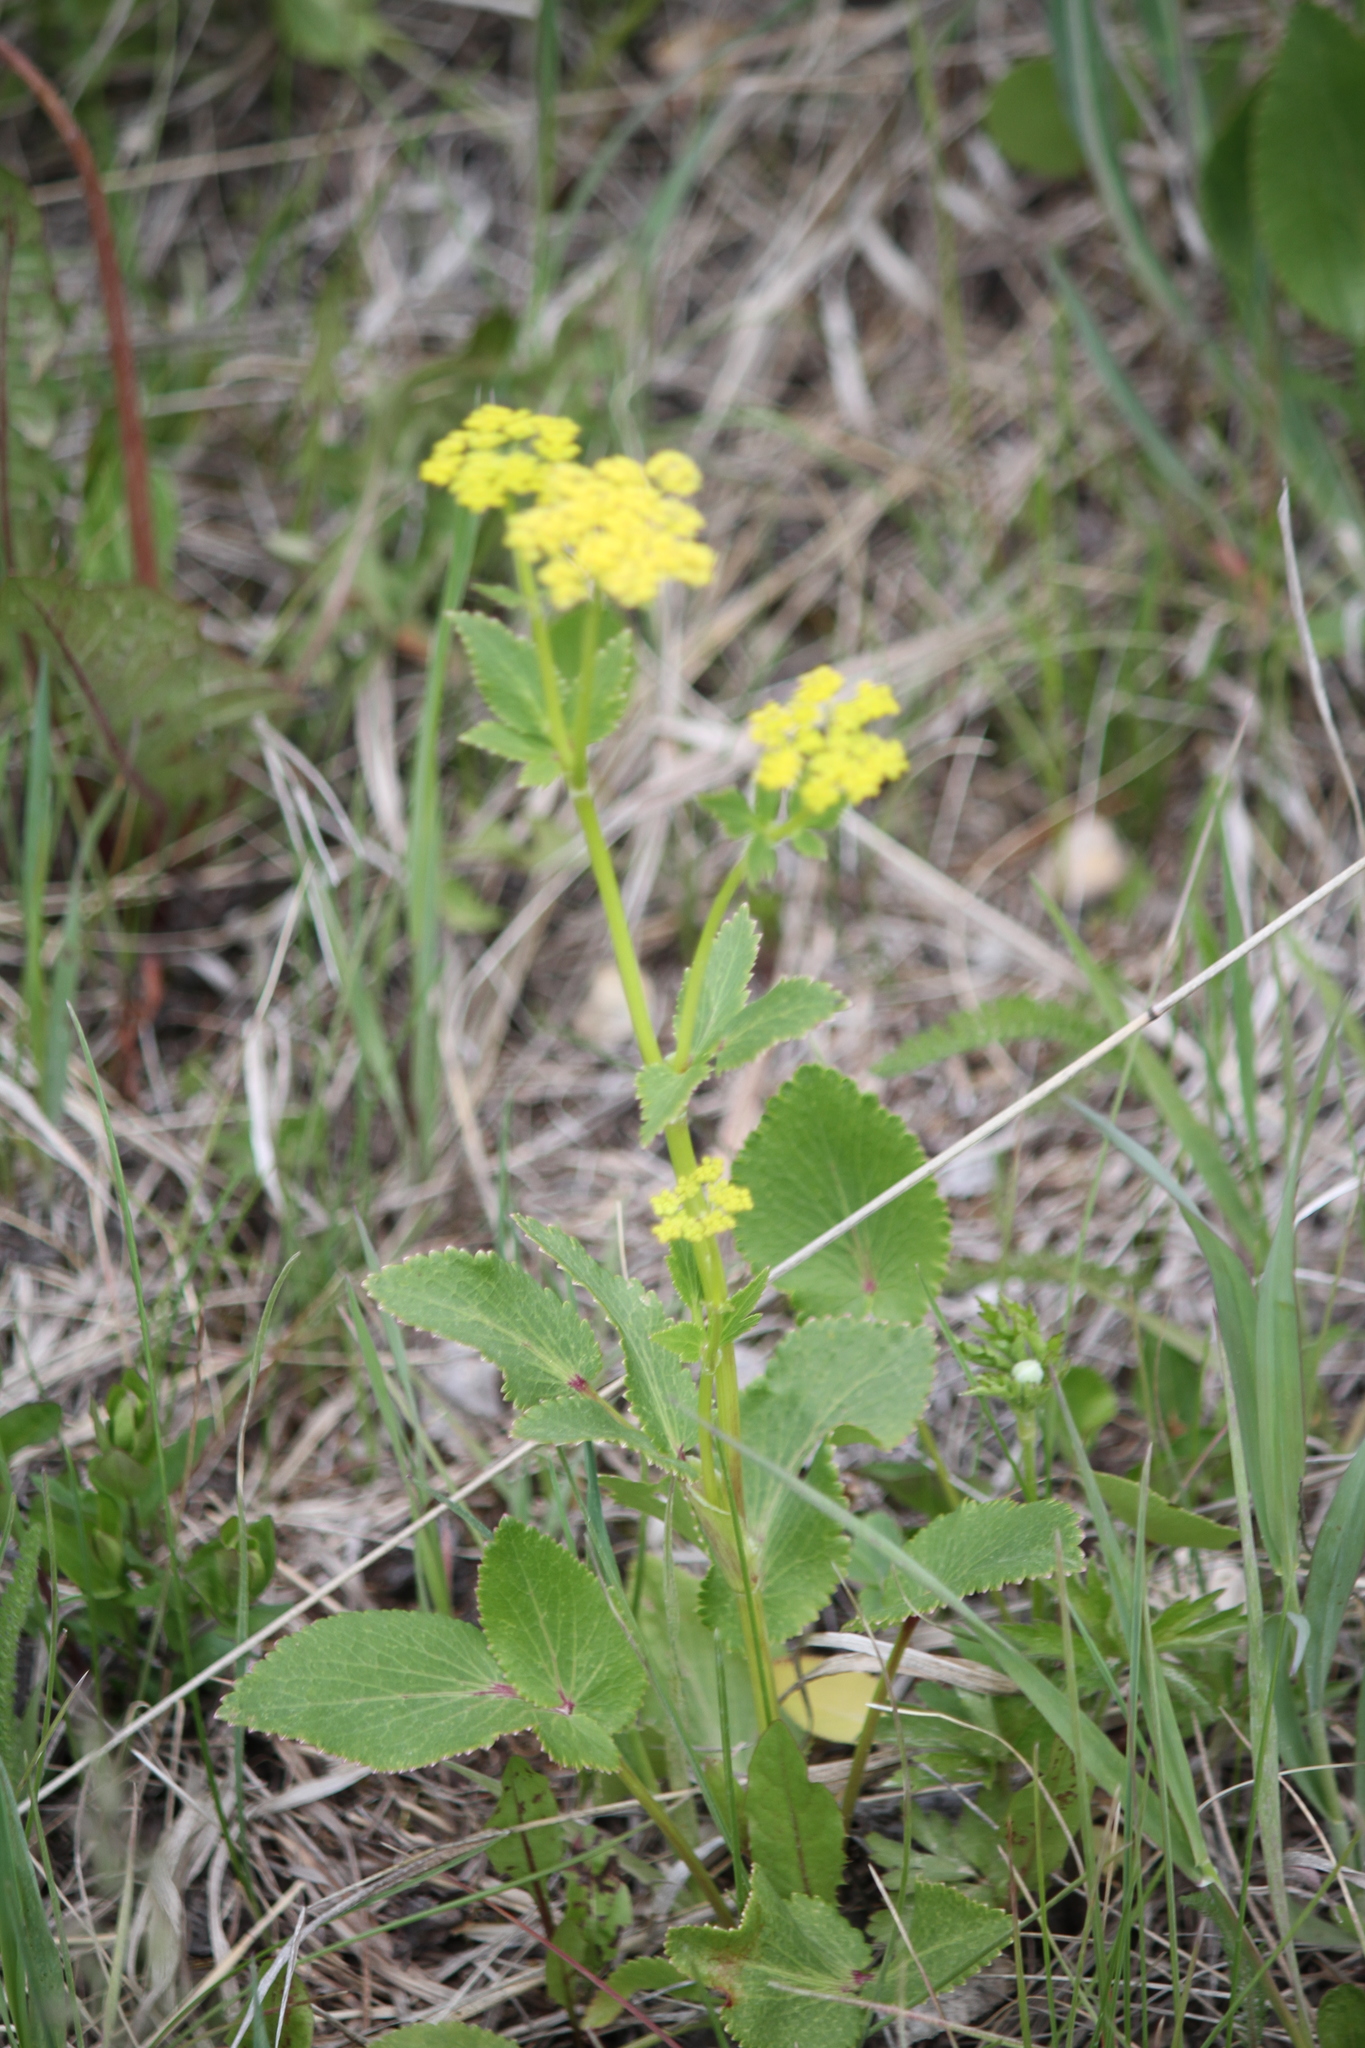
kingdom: Plantae
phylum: Tracheophyta
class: Magnoliopsida
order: Apiales
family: Apiaceae
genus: Zizia
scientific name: Zizia aptera
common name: Heart-leaved alexanders
